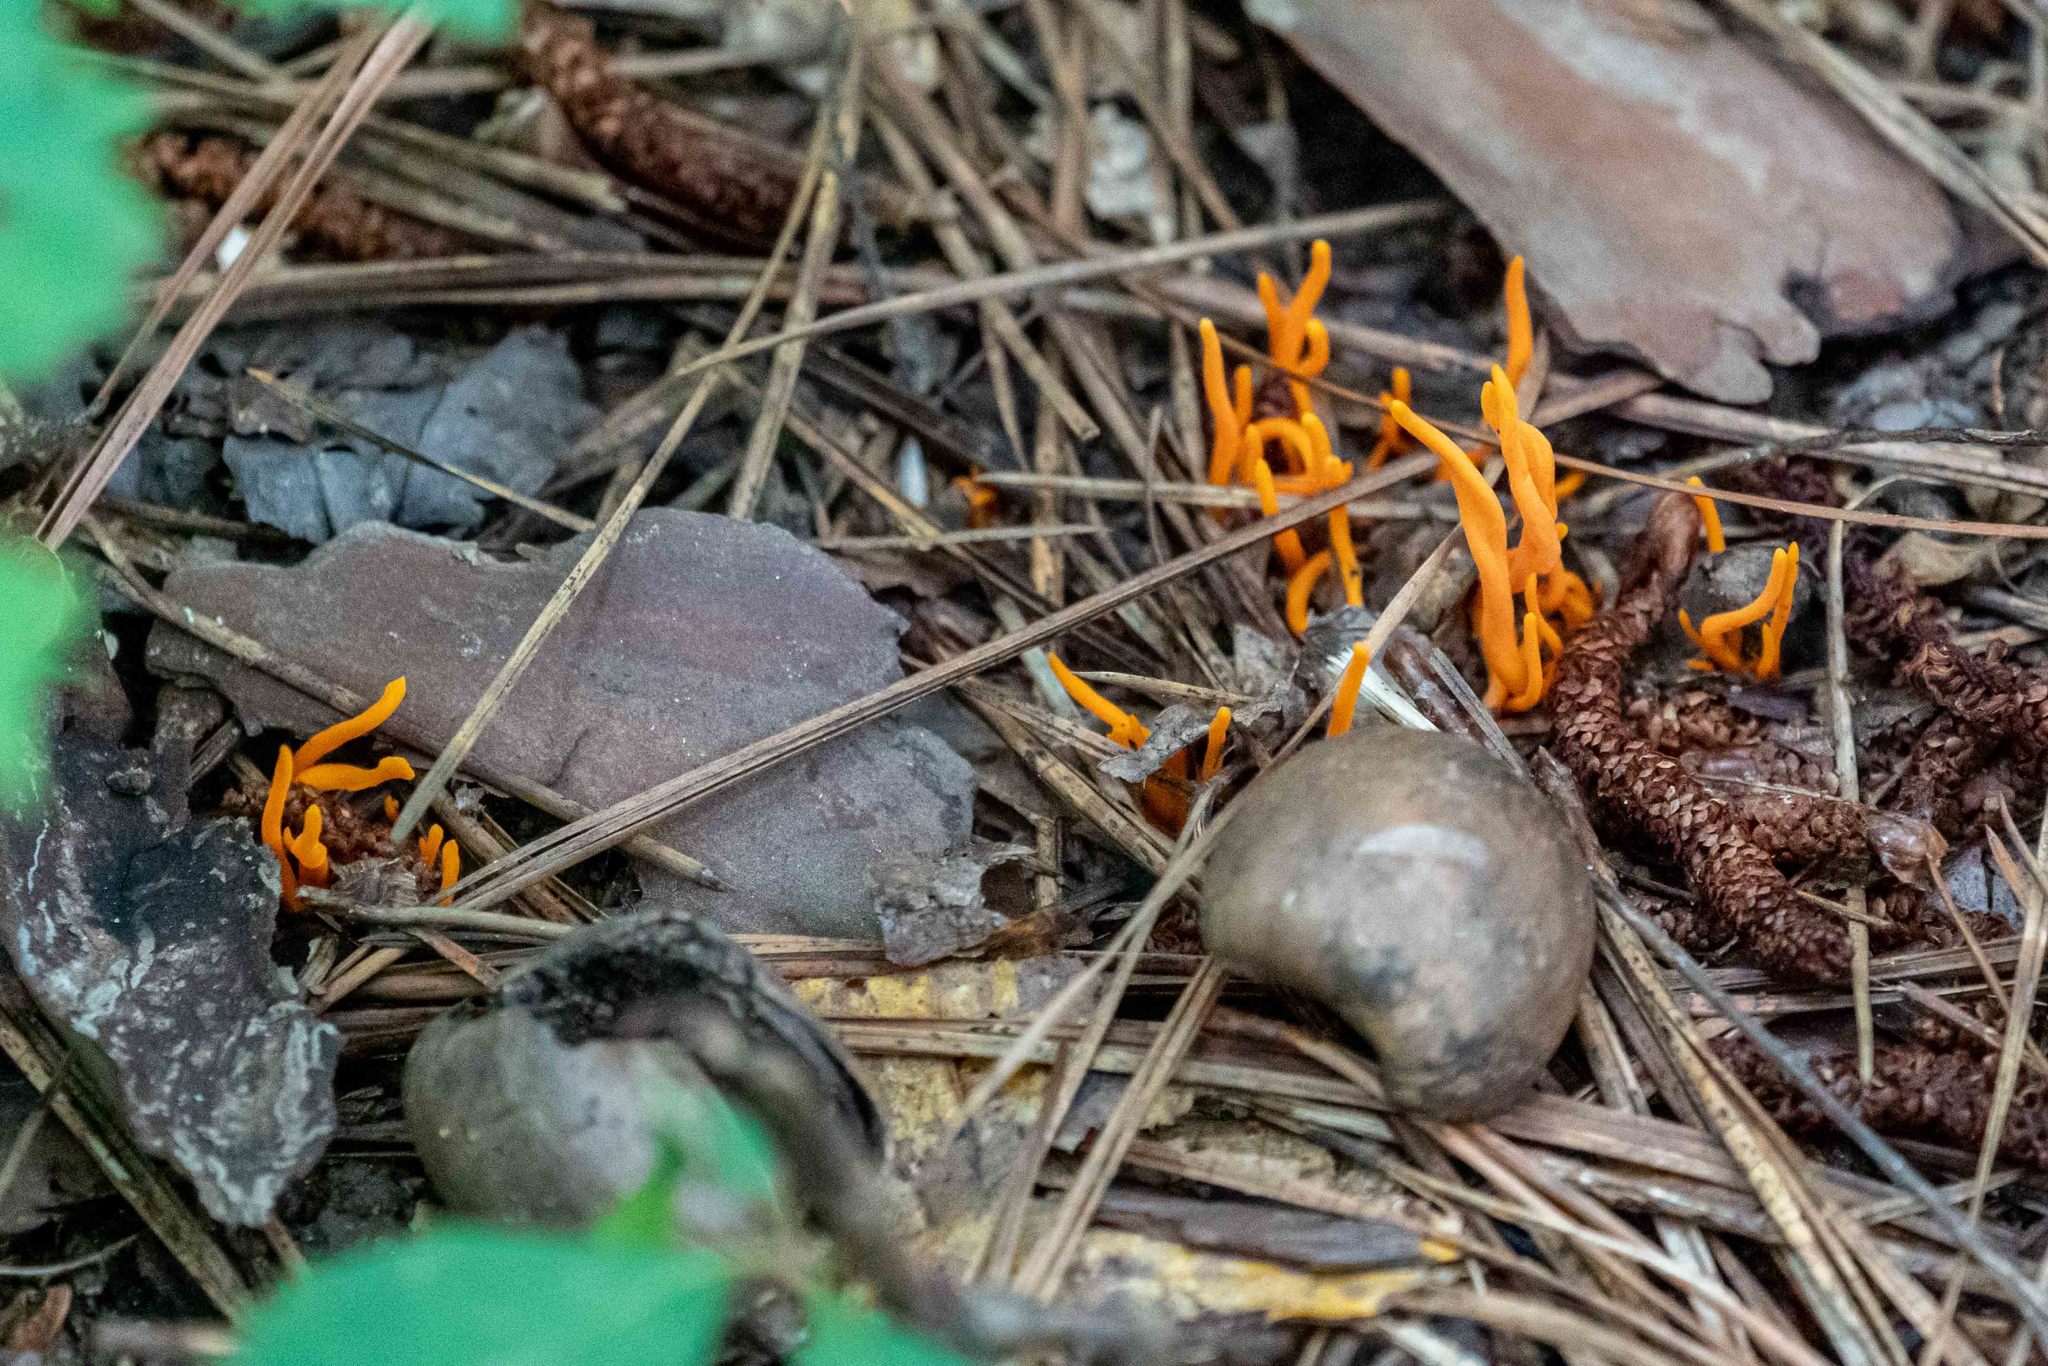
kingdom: Fungi
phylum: Basidiomycota
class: Agaricomycetes
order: Agaricales
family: Clavariaceae
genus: Clavulinopsis
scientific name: Clavulinopsis aurantiocinnabarina
